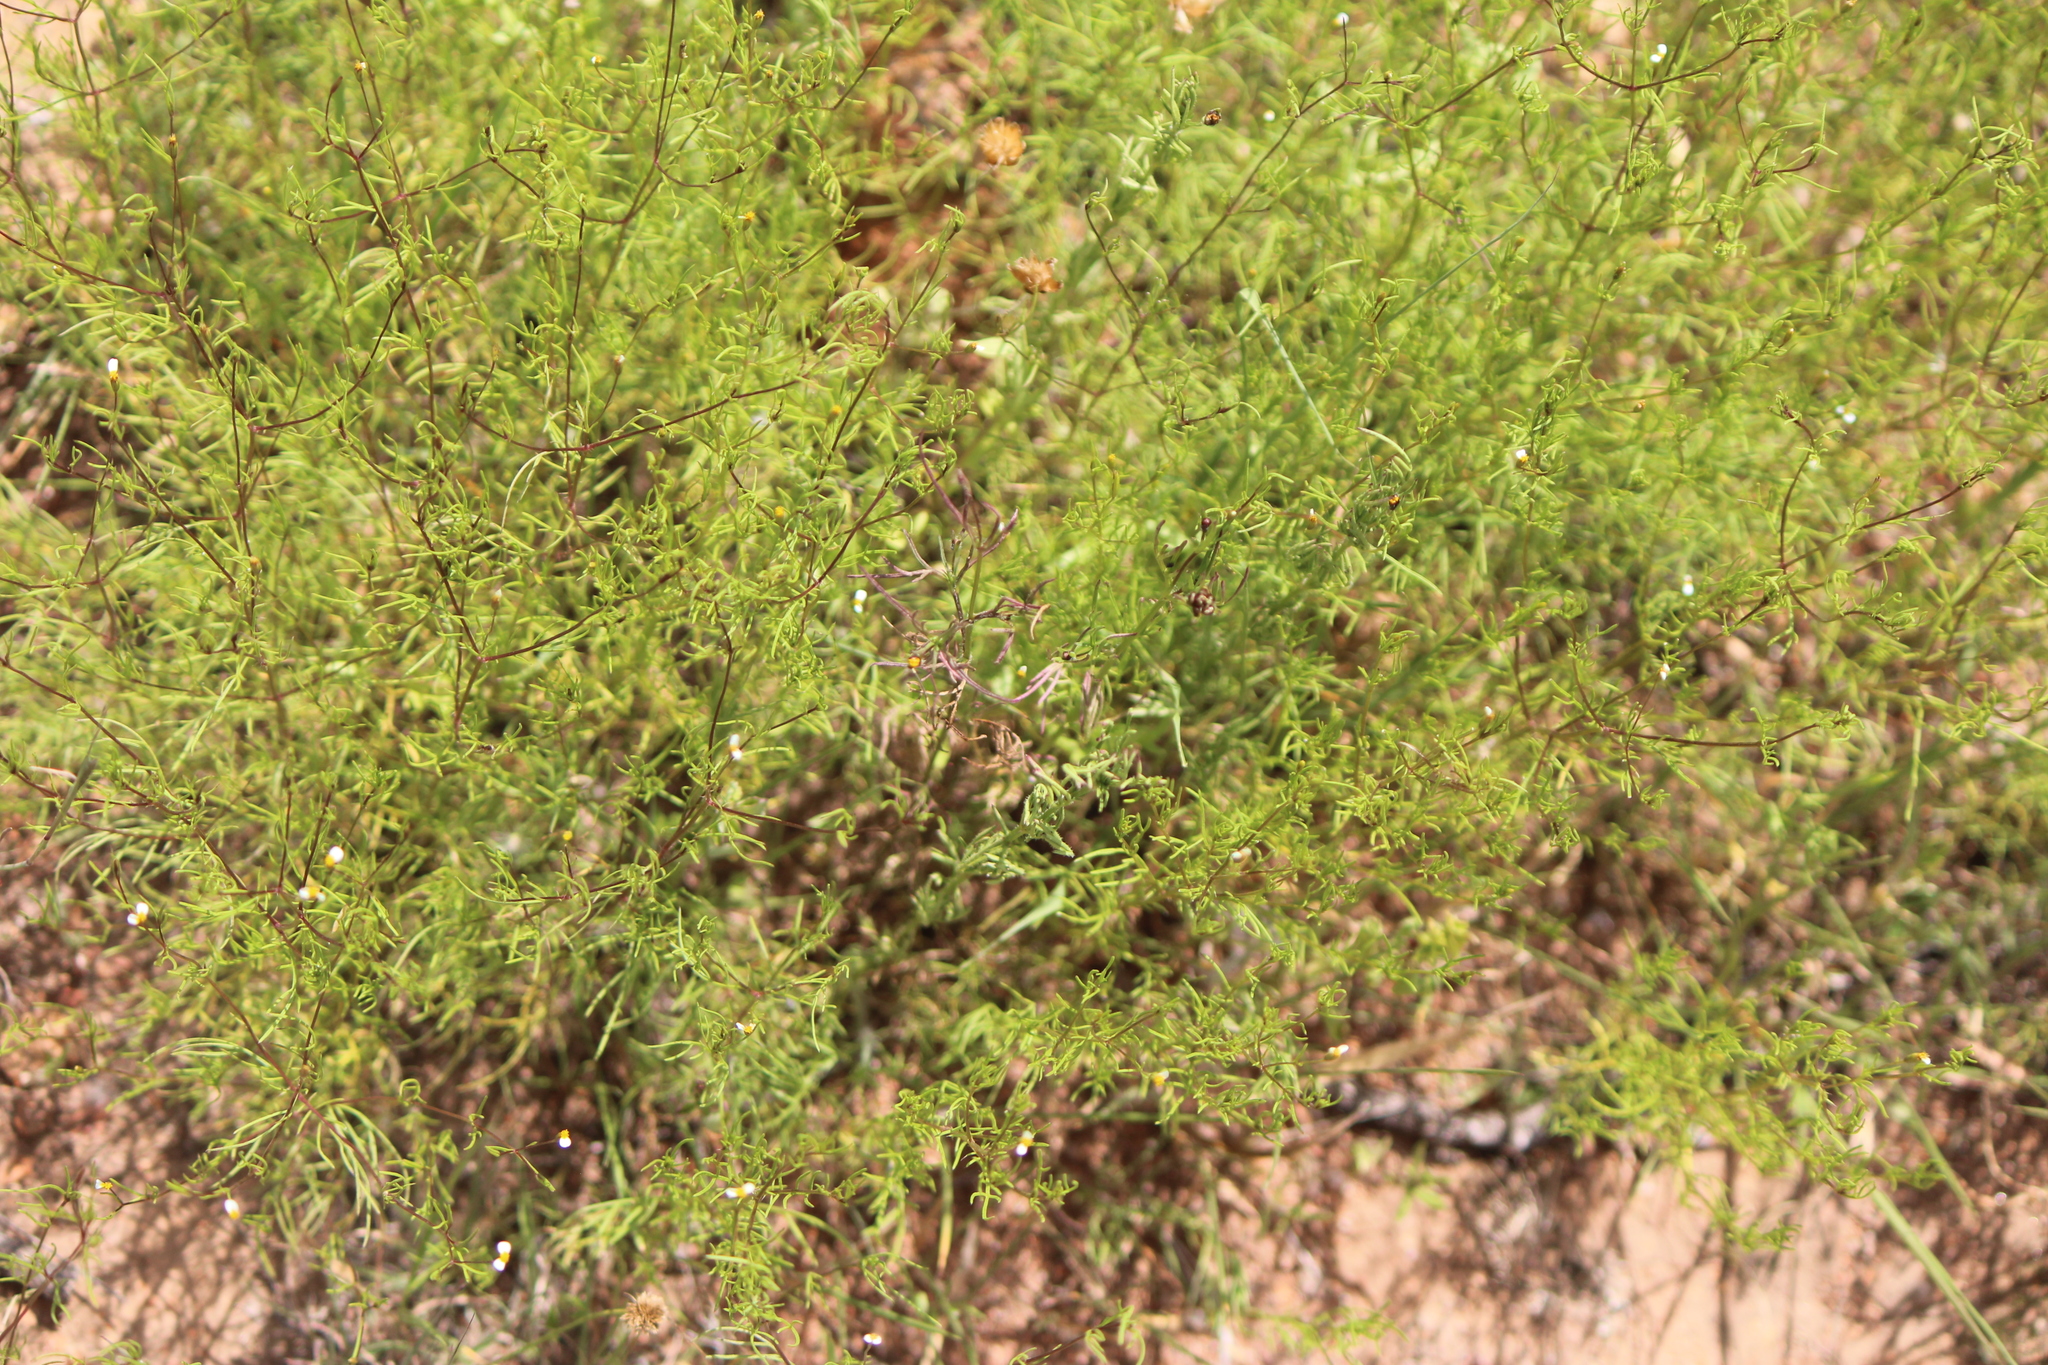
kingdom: Plantae
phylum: Tracheophyta
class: Magnoliopsida
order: Asterales
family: Asteraceae
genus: Tagetes
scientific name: Tagetes micrantha
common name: Licorice marigold
